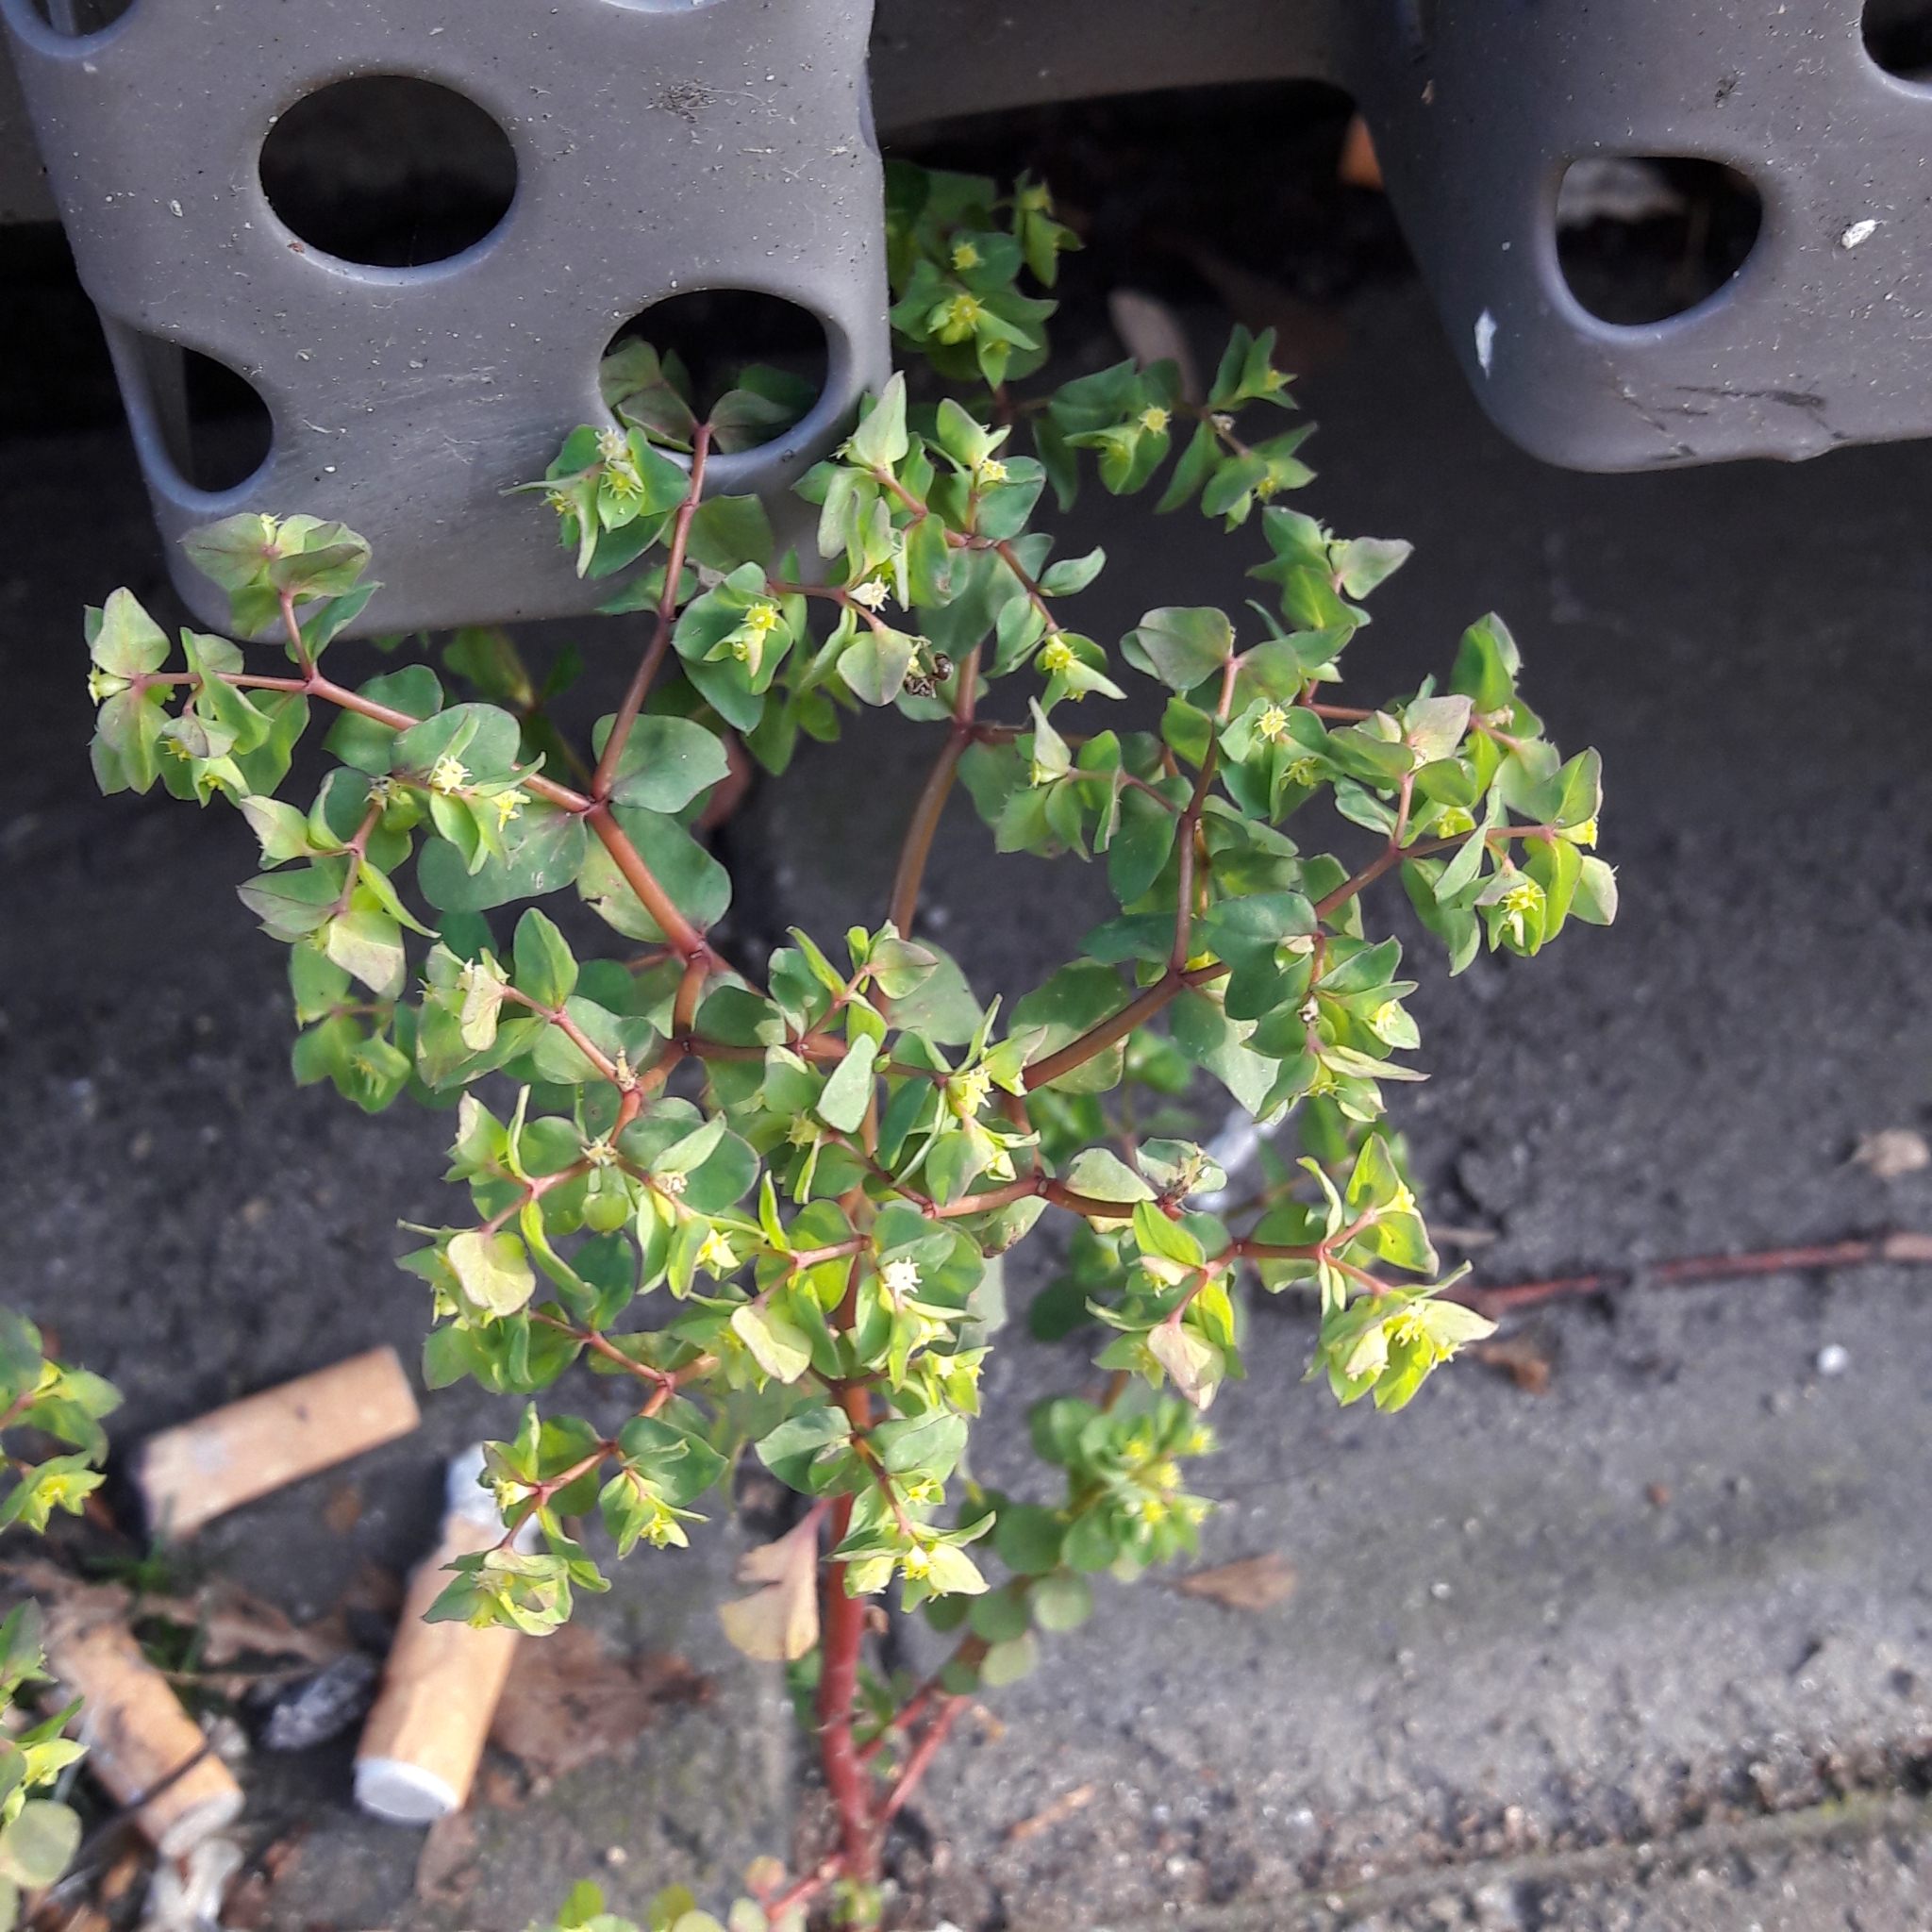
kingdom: Plantae
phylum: Tracheophyta
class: Magnoliopsida
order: Malpighiales
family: Euphorbiaceae
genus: Euphorbia
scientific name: Euphorbia peplus
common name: Petty spurge
